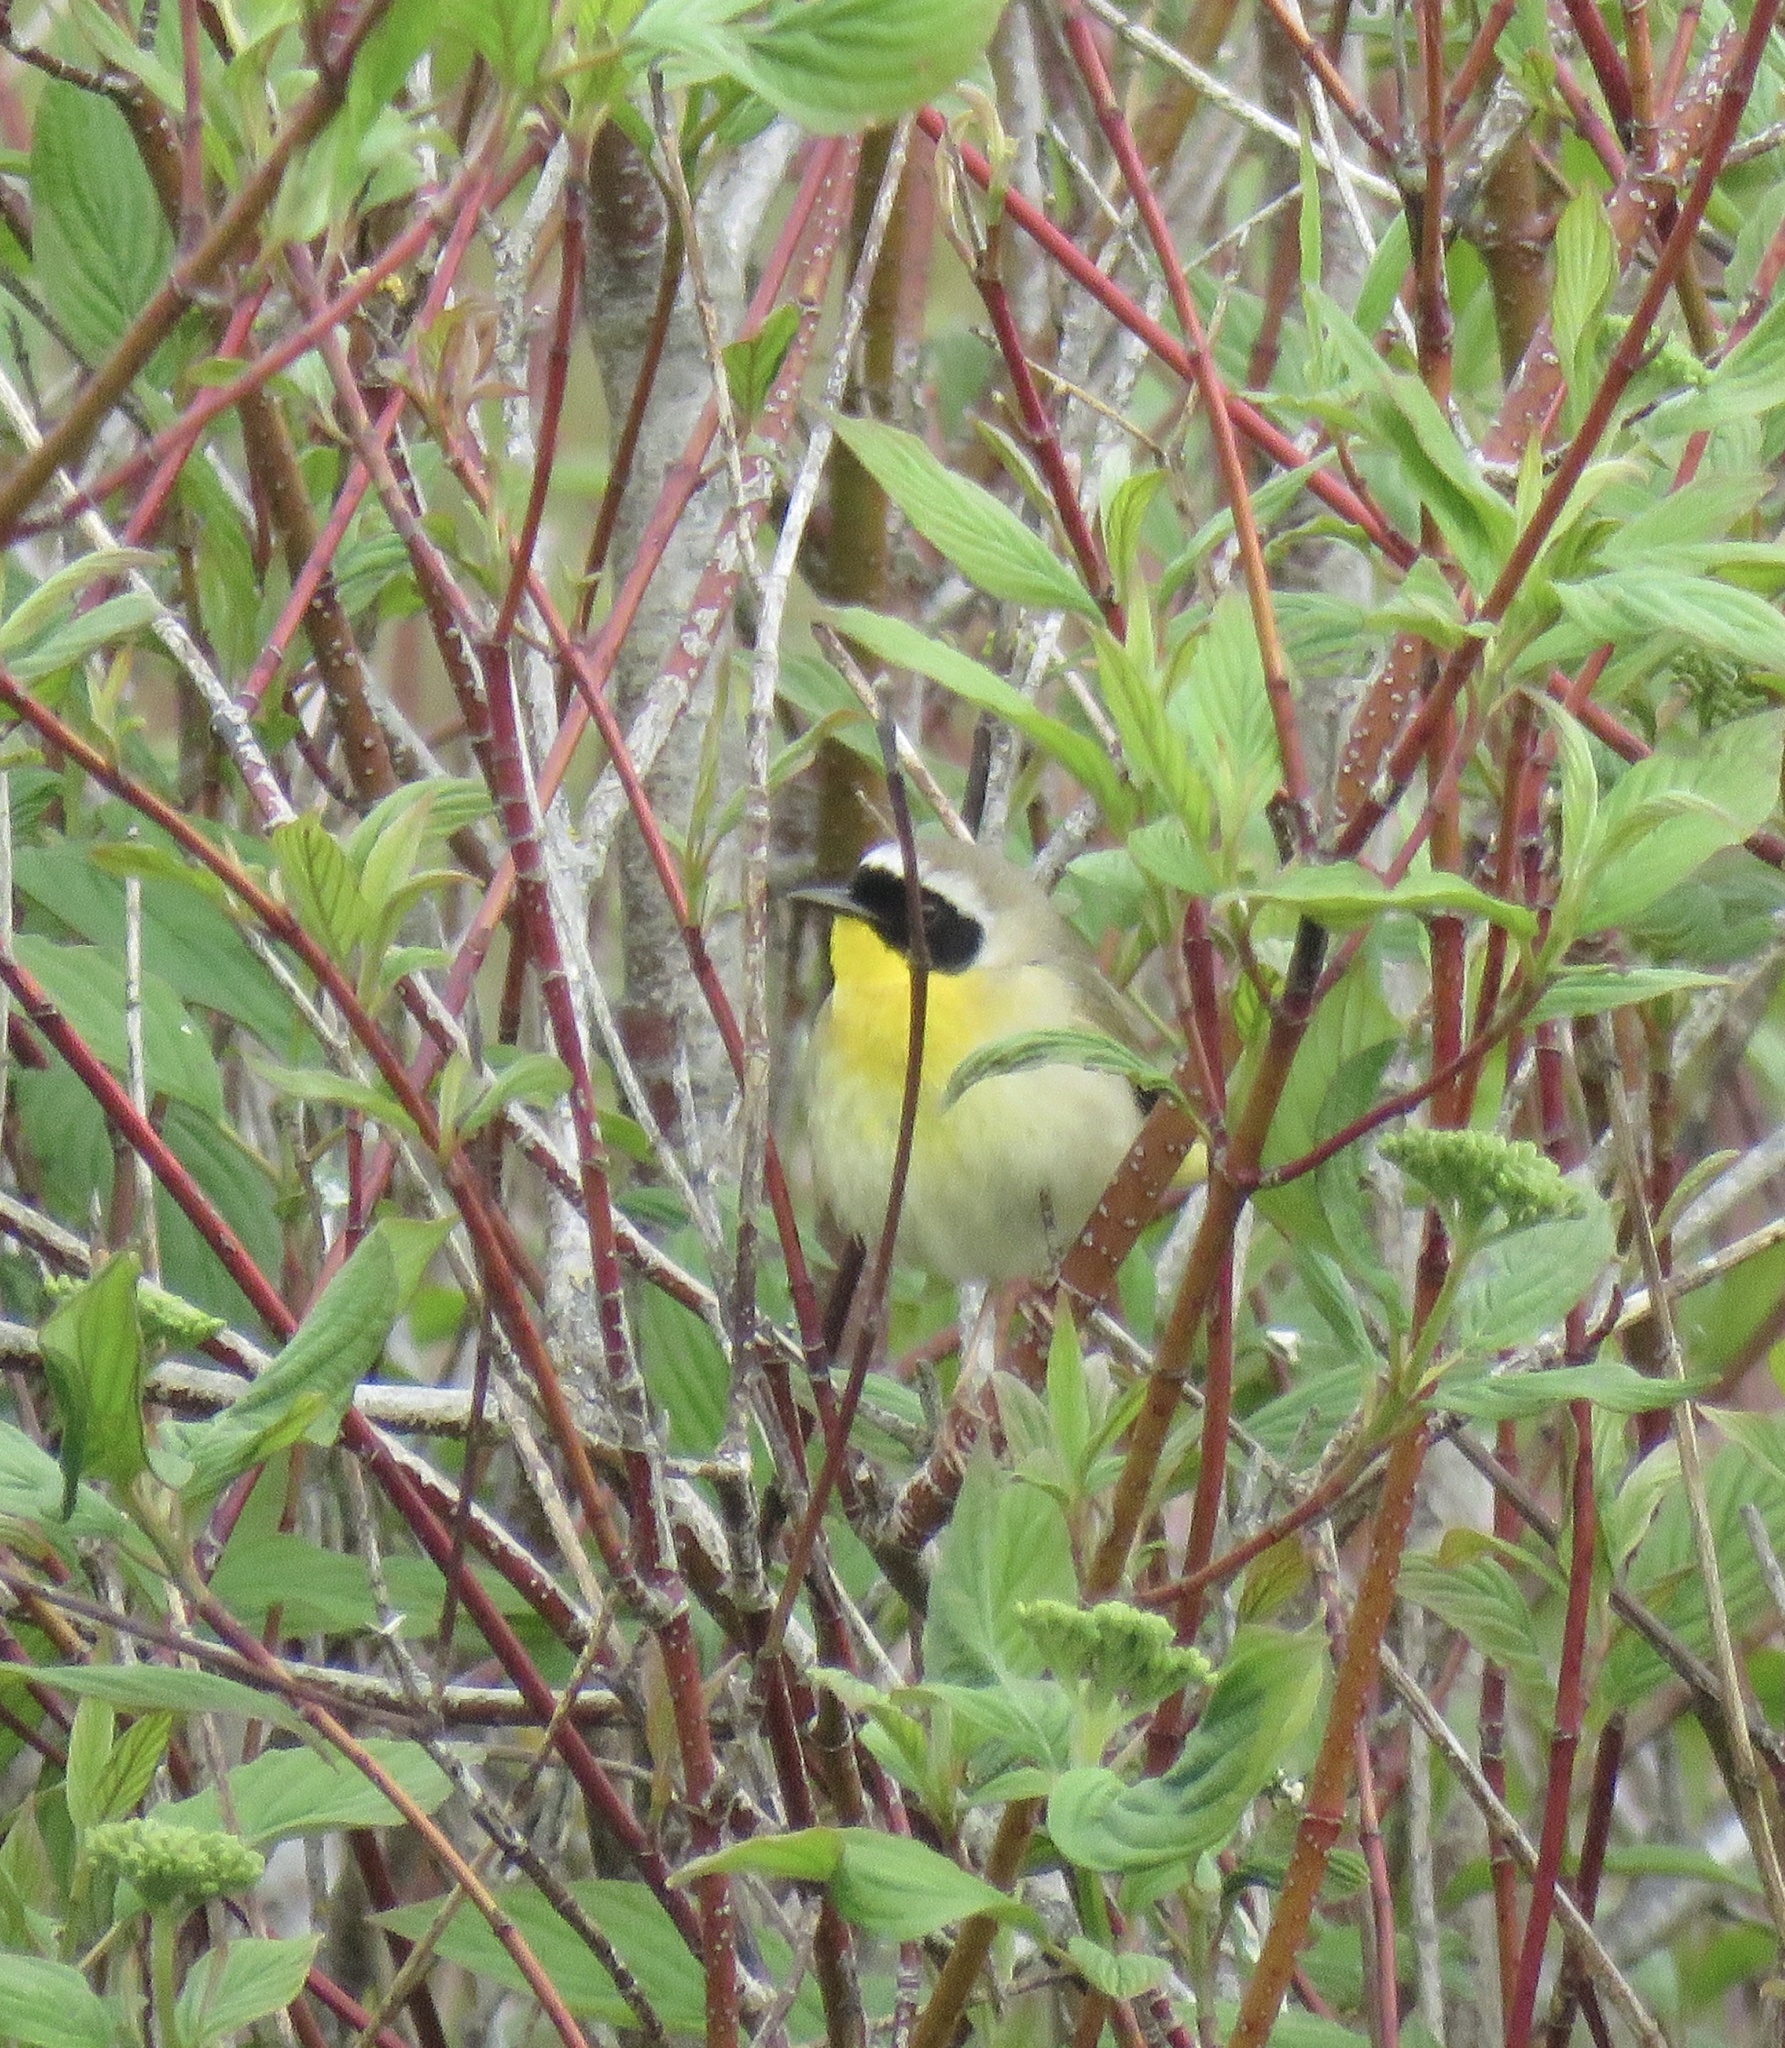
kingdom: Animalia
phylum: Chordata
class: Aves
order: Passeriformes
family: Parulidae
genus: Geothlypis
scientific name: Geothlypis trichas
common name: Common yellowthroat
